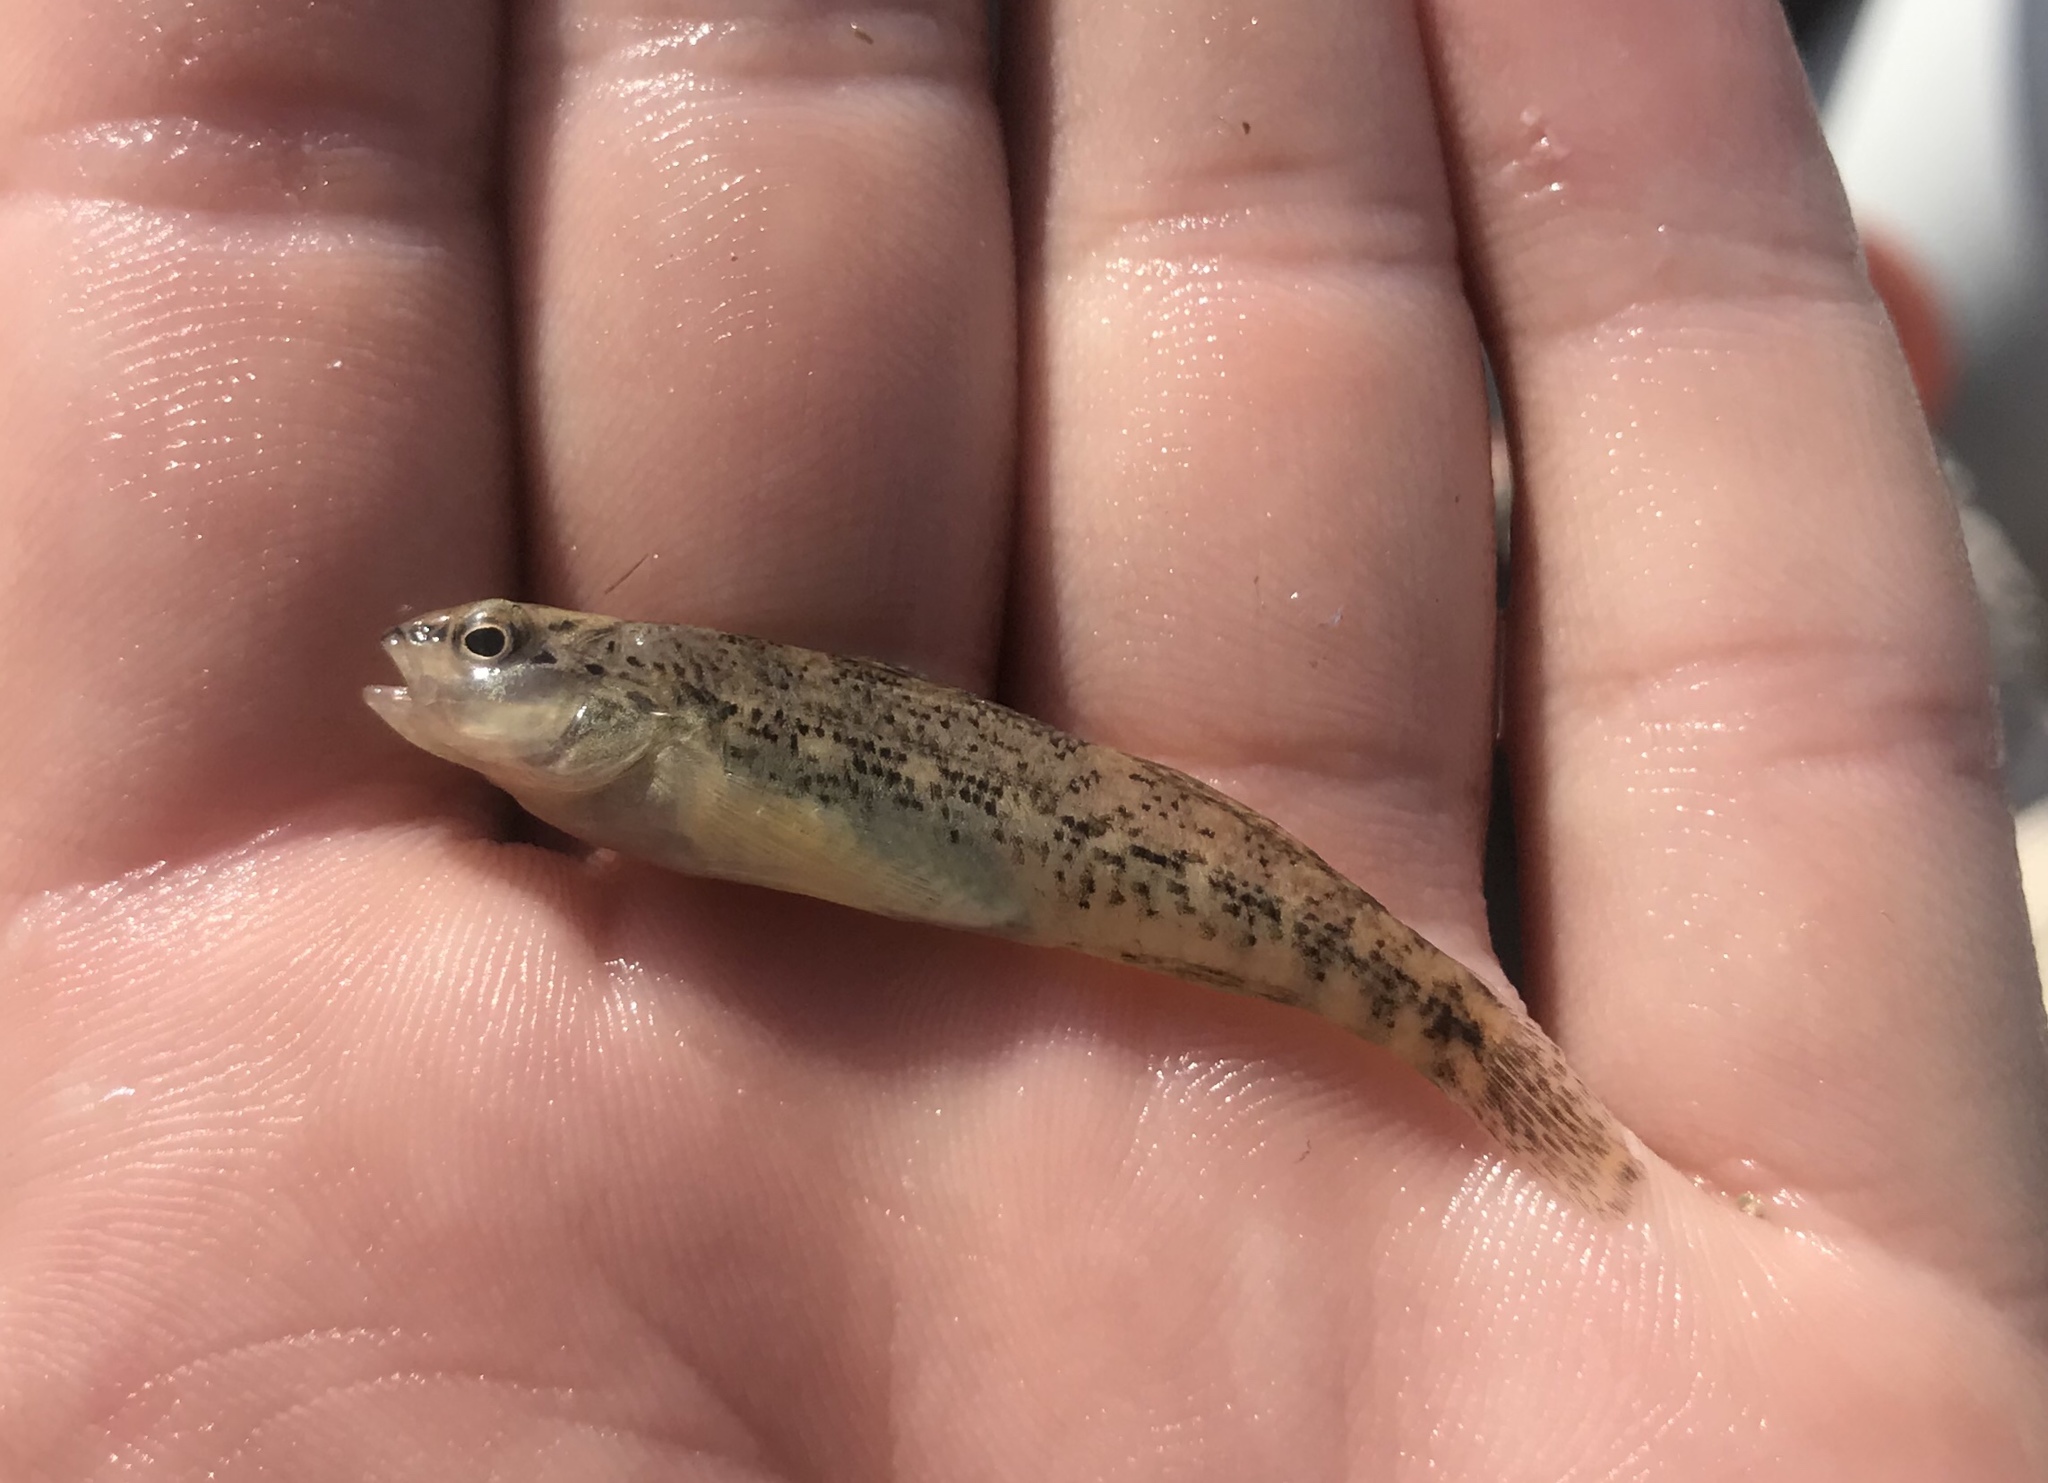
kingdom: Animalia
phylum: Chordata
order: Perciformes
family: Percidae
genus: Etheostoma
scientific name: Etheostoma spectabile
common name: Orangethroat darter
